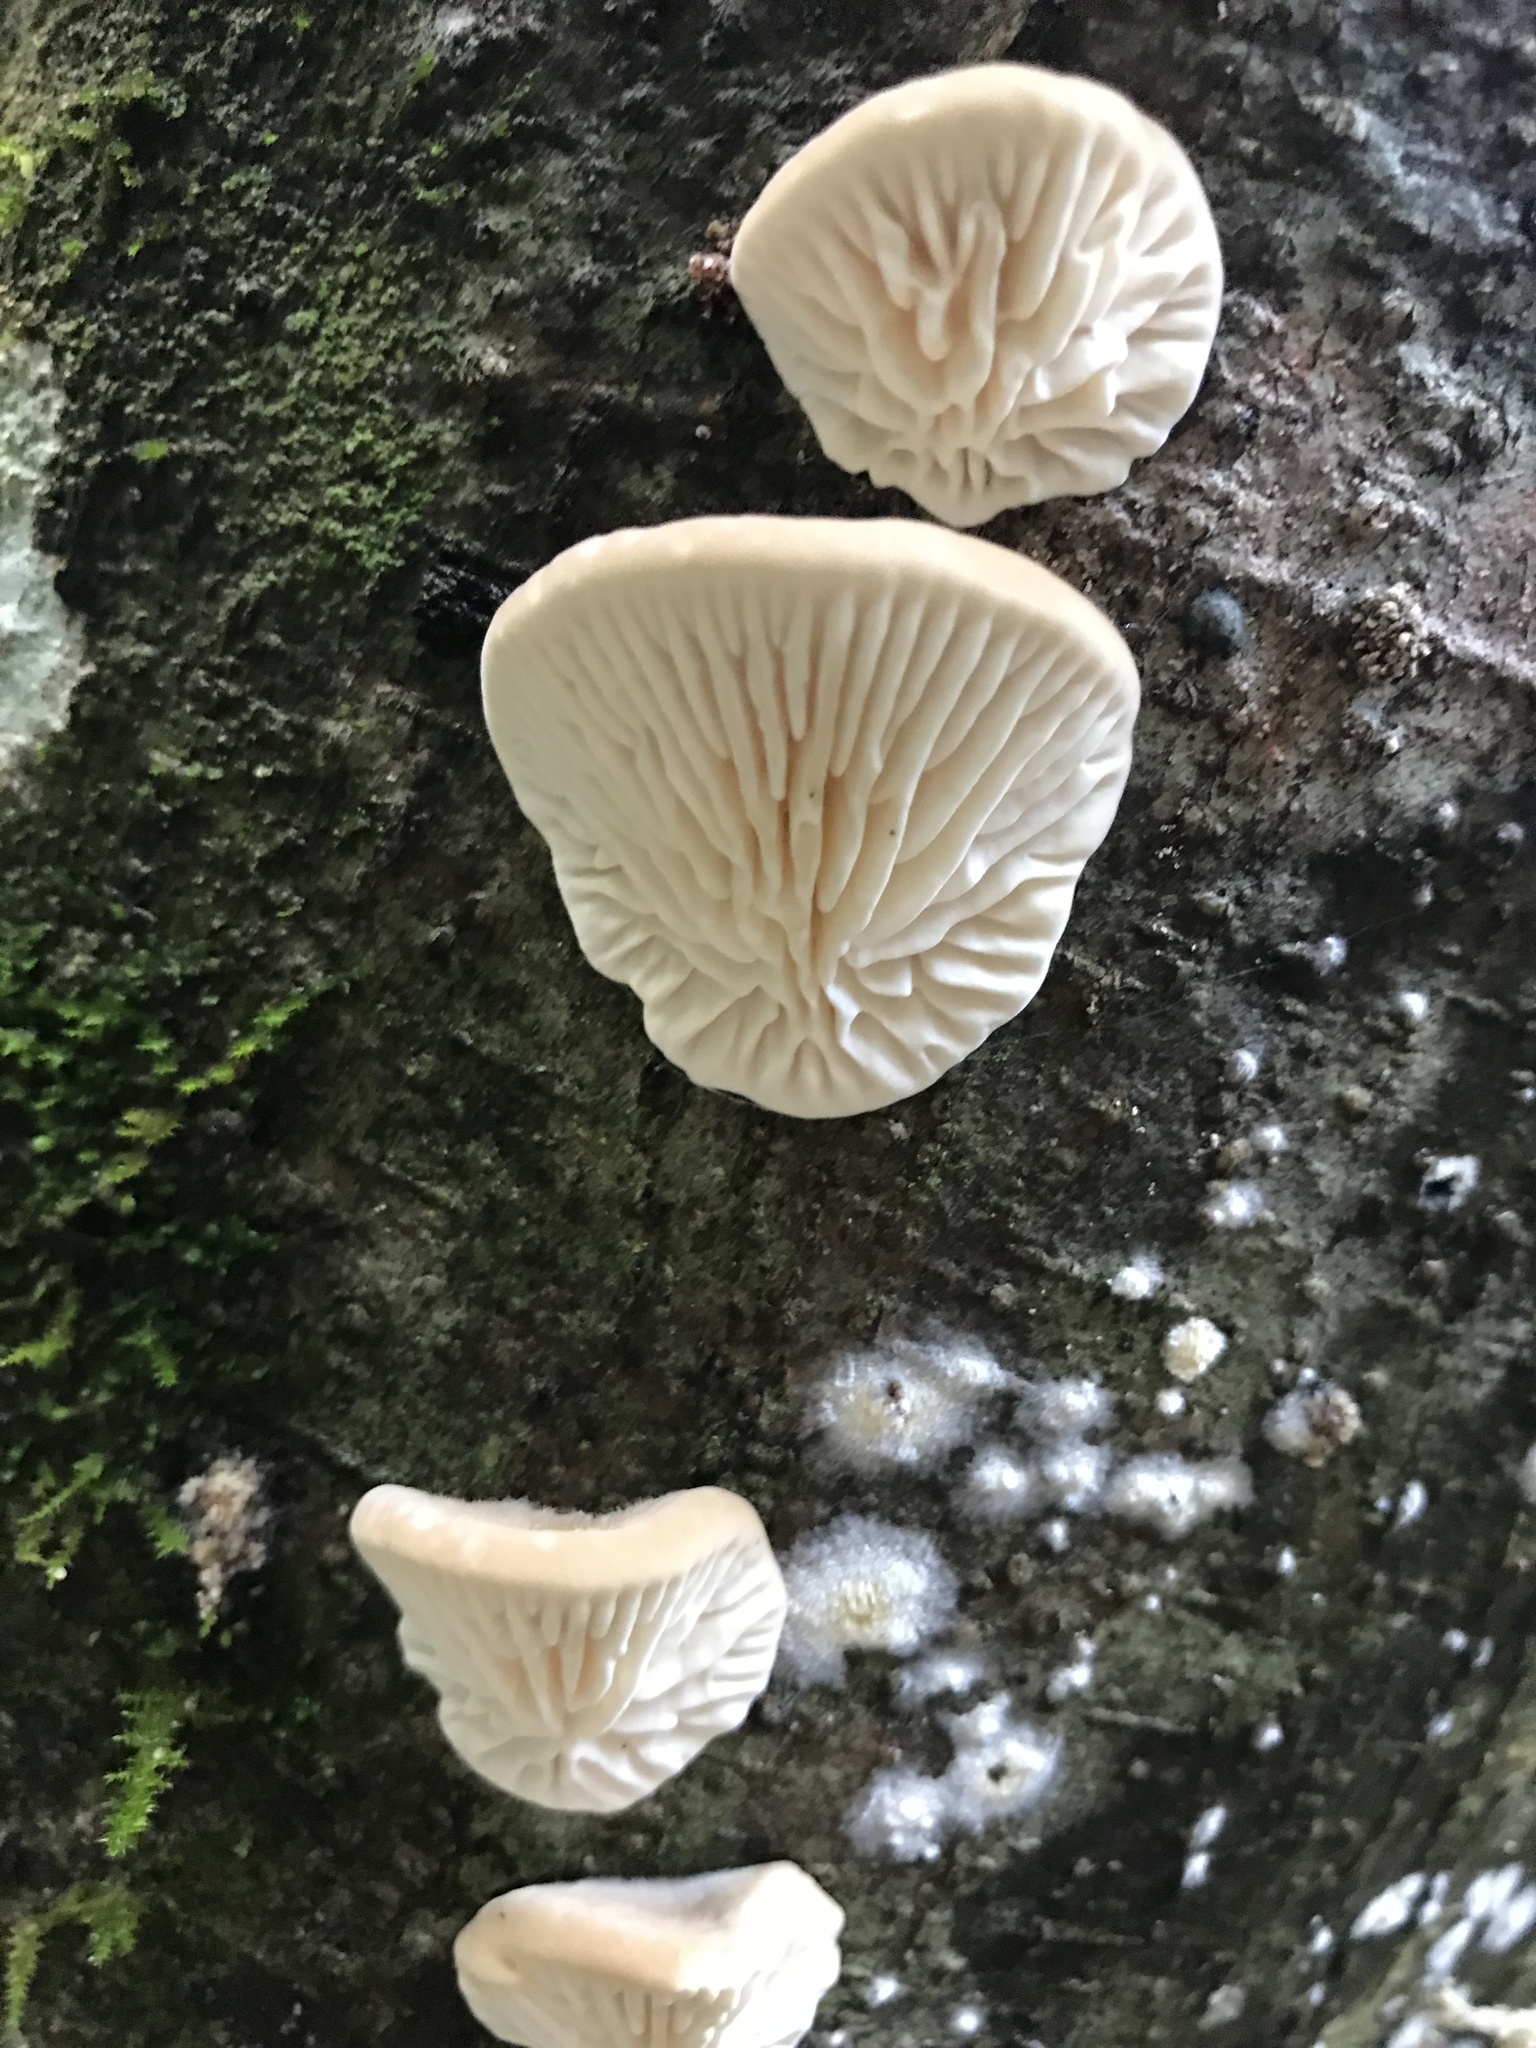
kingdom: Fungi
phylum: Basidiomycota
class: Agaricomycetes
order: Polyporales
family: Polyporaceae
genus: Lenzites
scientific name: Lenzites betulinus
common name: Birch mazegill
